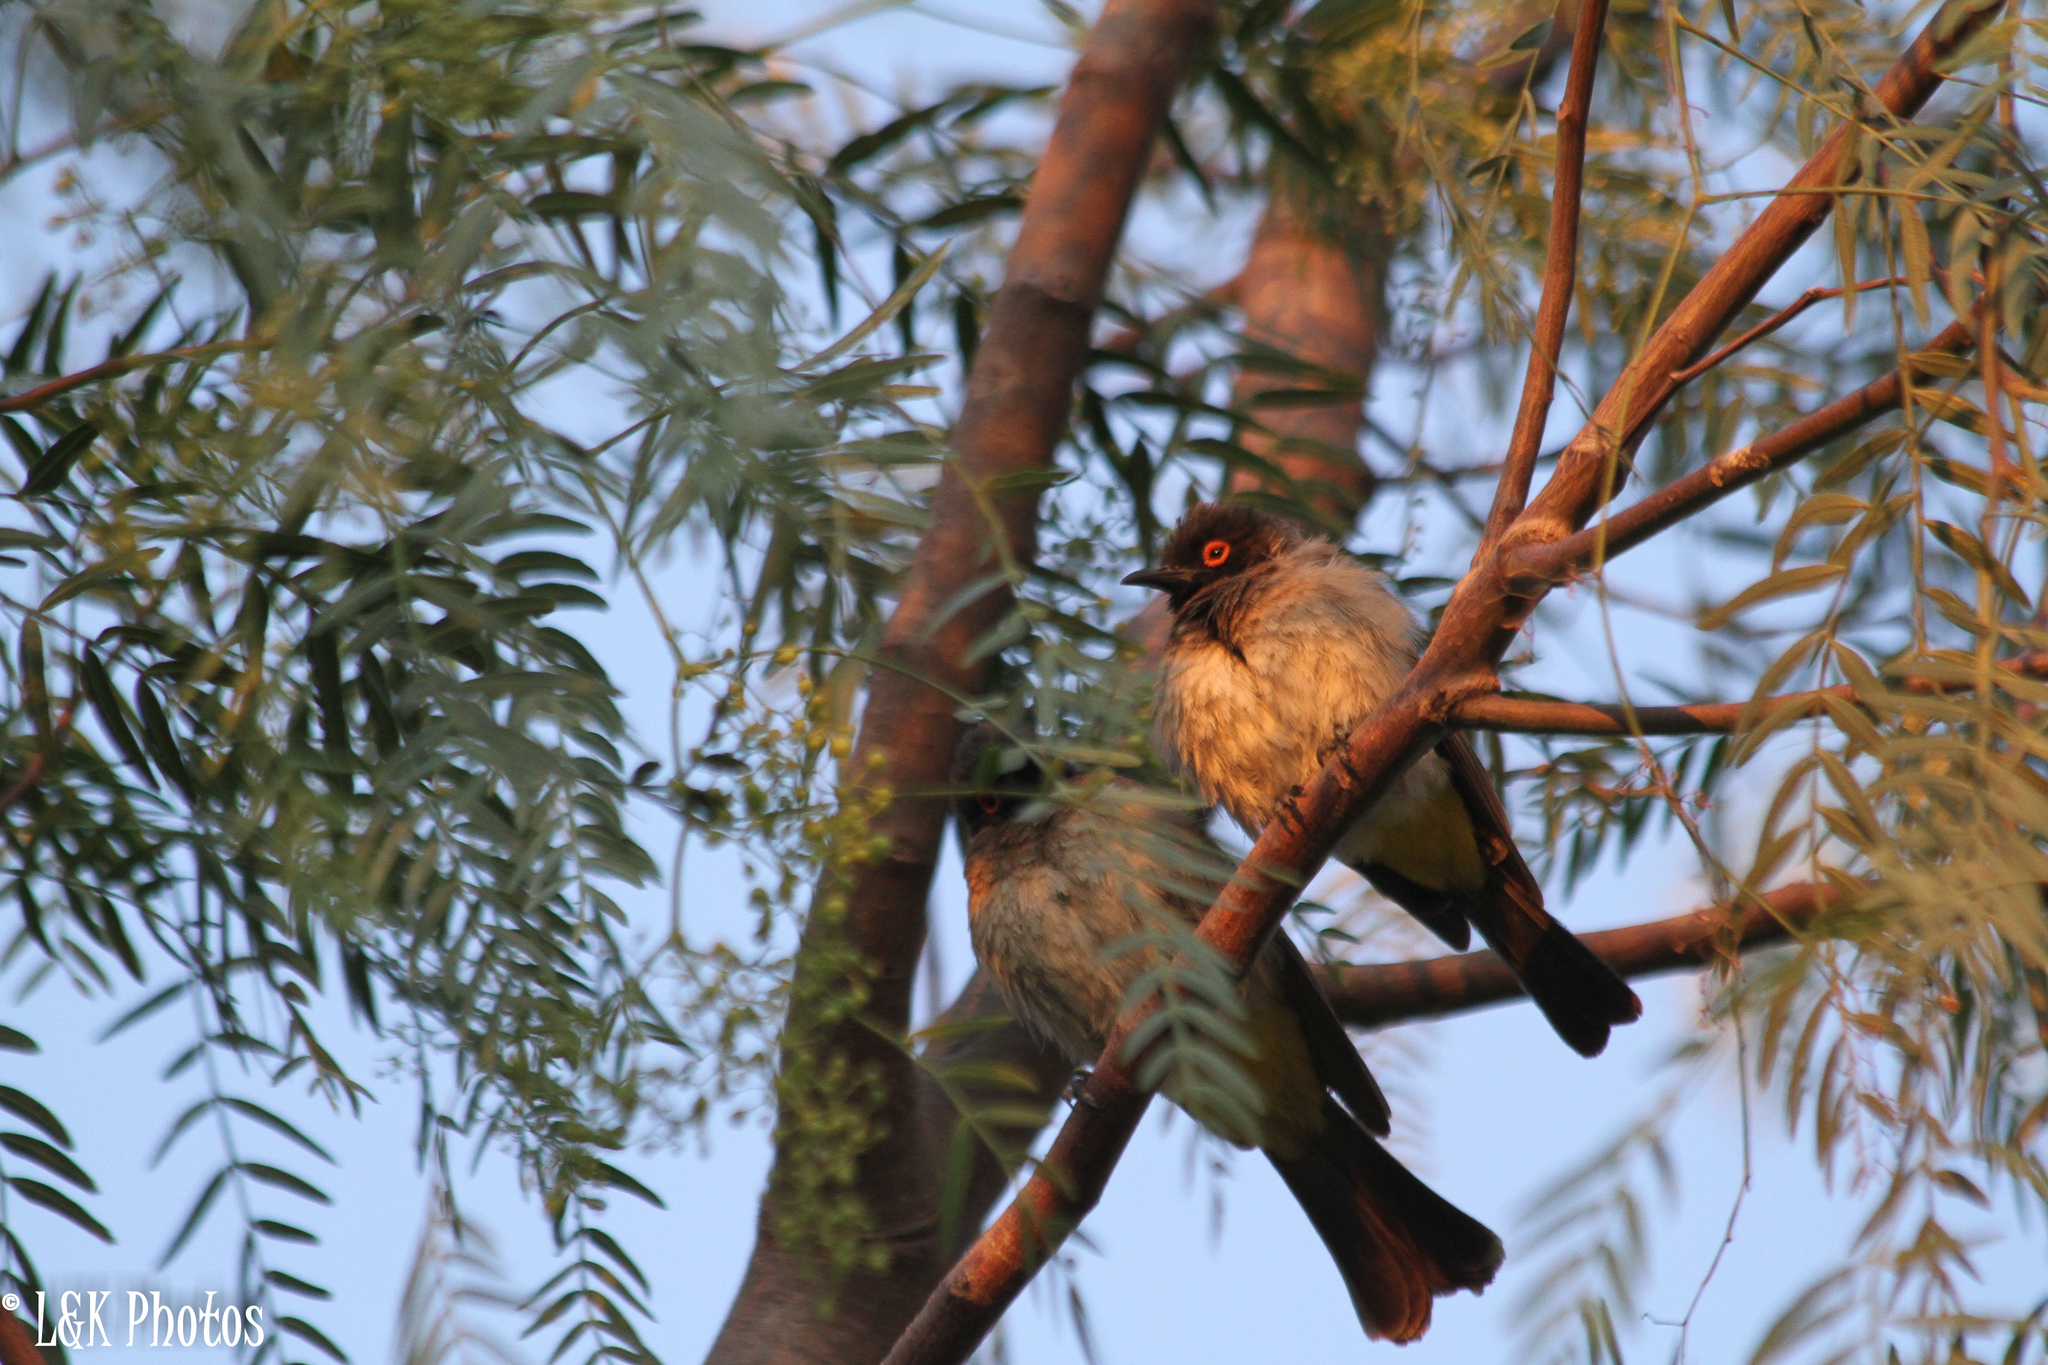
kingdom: Animalia
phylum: Chordata
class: Aves
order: Passeriformes
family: Pycnonotidae
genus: Pycnonotus
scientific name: Pycnonotus nigricans
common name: African red-eyed bulbul
